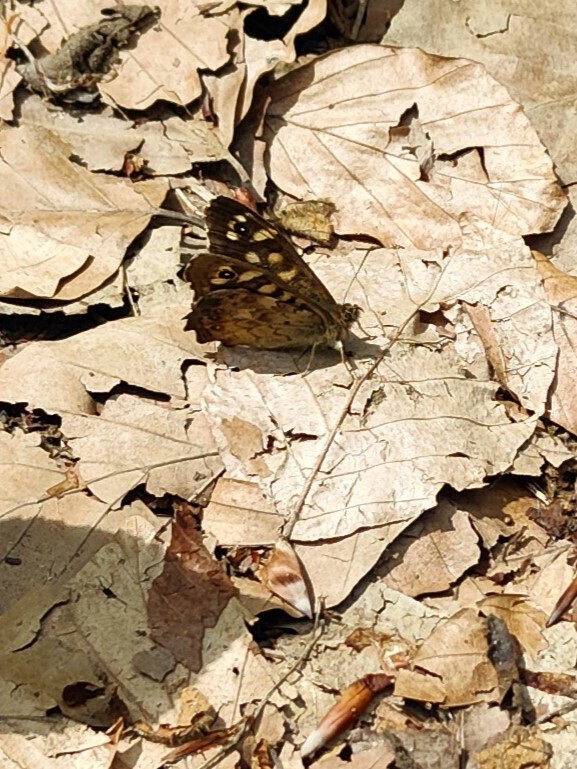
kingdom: Animalia
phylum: Arthropoda
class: Insecta
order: Lepidoptera
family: Nymphalidae
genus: Pararge
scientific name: Pararge aegeria
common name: Speckled wood
